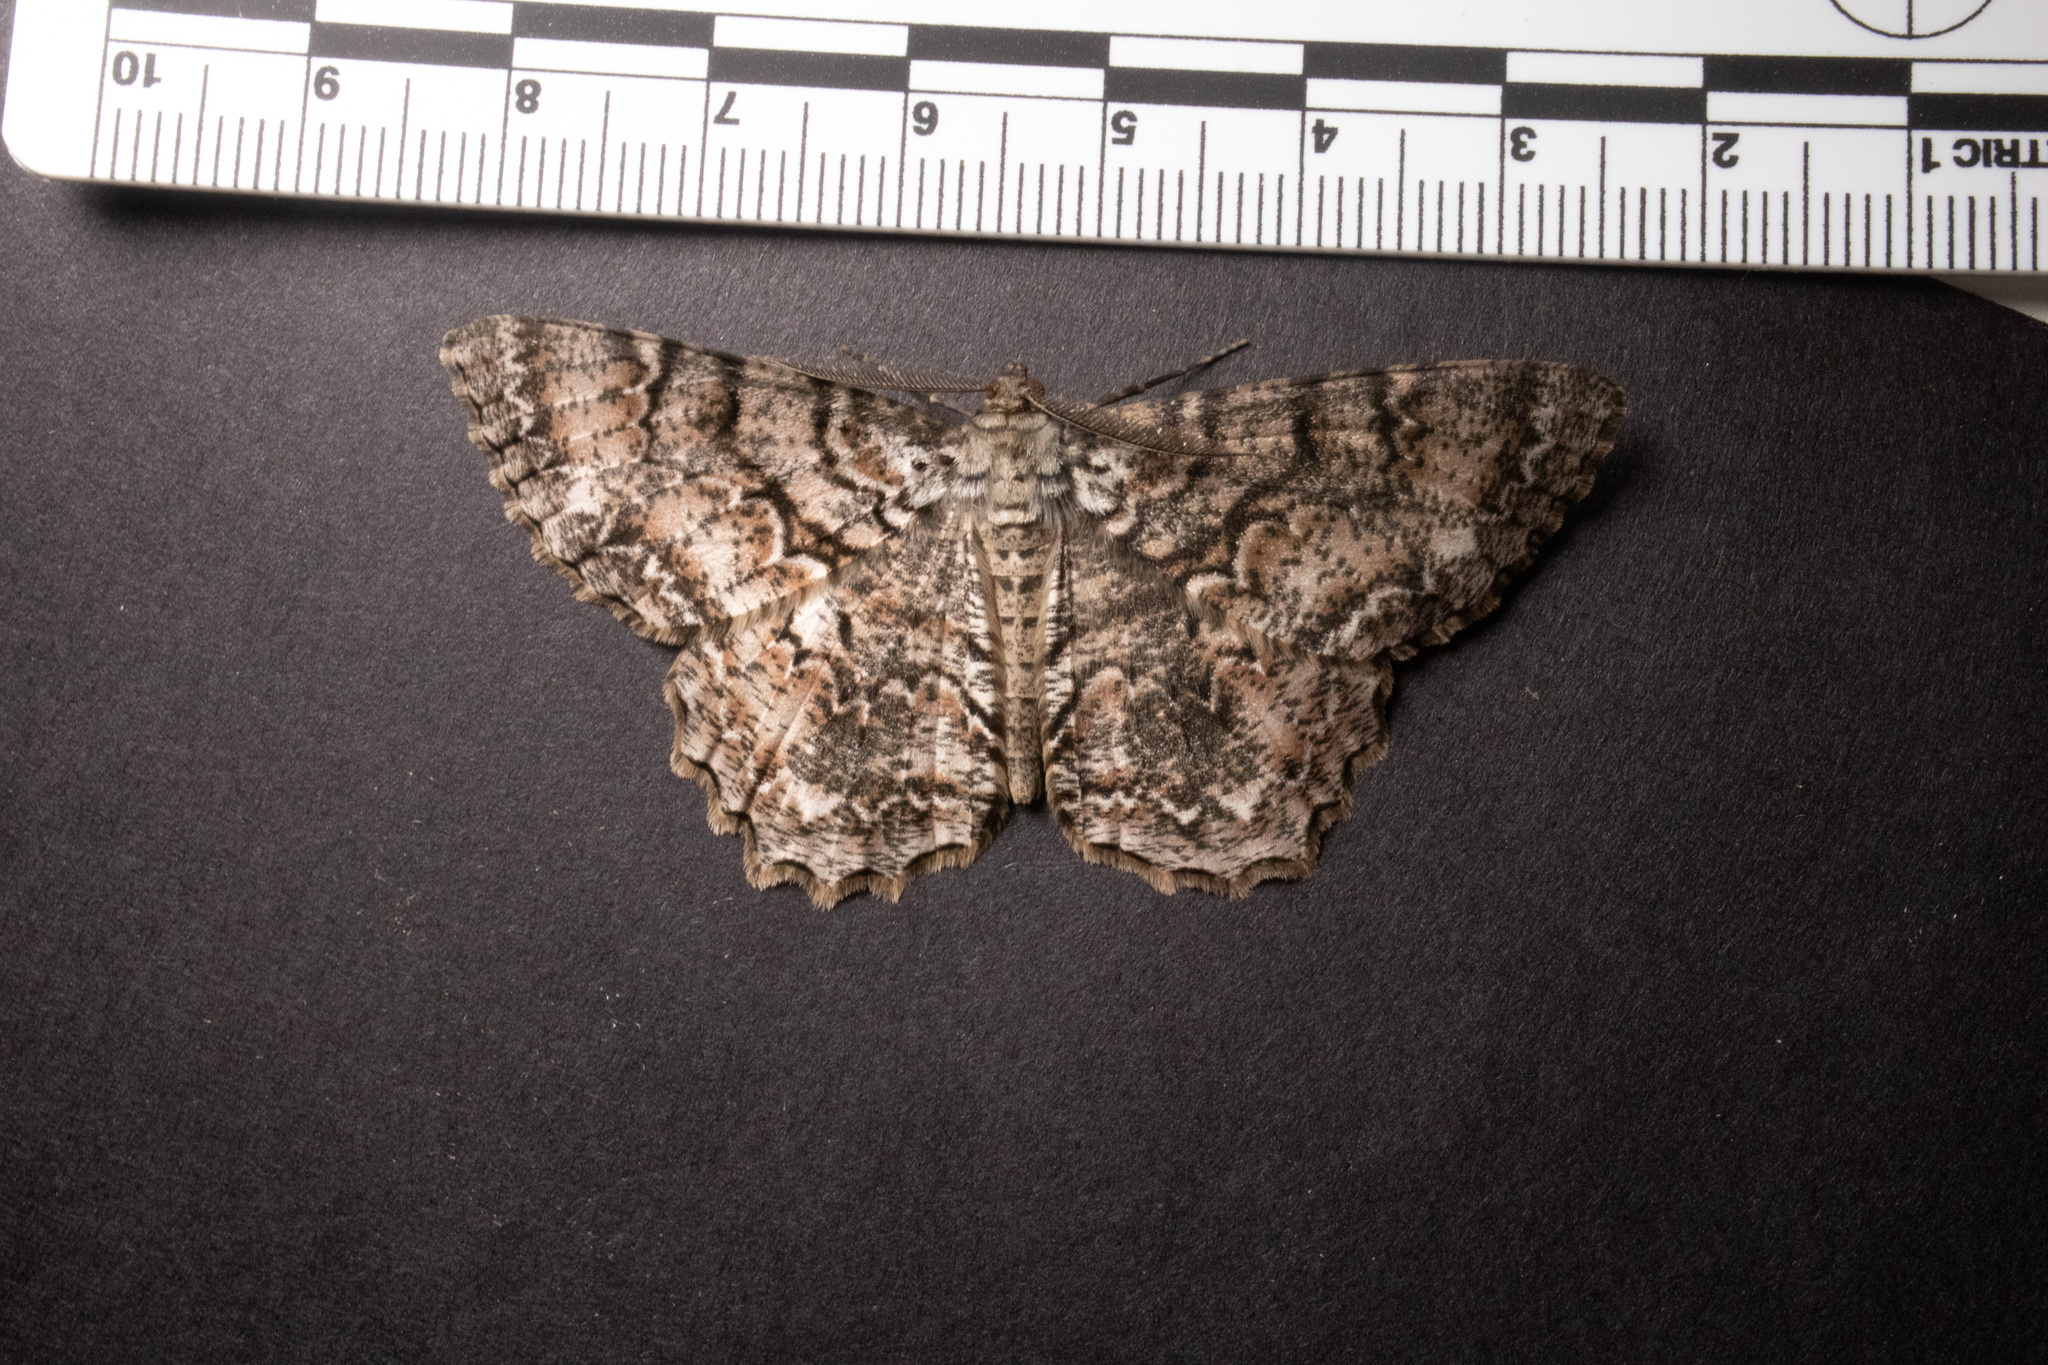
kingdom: Animalia
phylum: Arthropoda
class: Insecta
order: Lepidoptera
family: Geometridae
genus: Epimecis
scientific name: Epimecis hortaria
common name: Tulip-tree beauty
